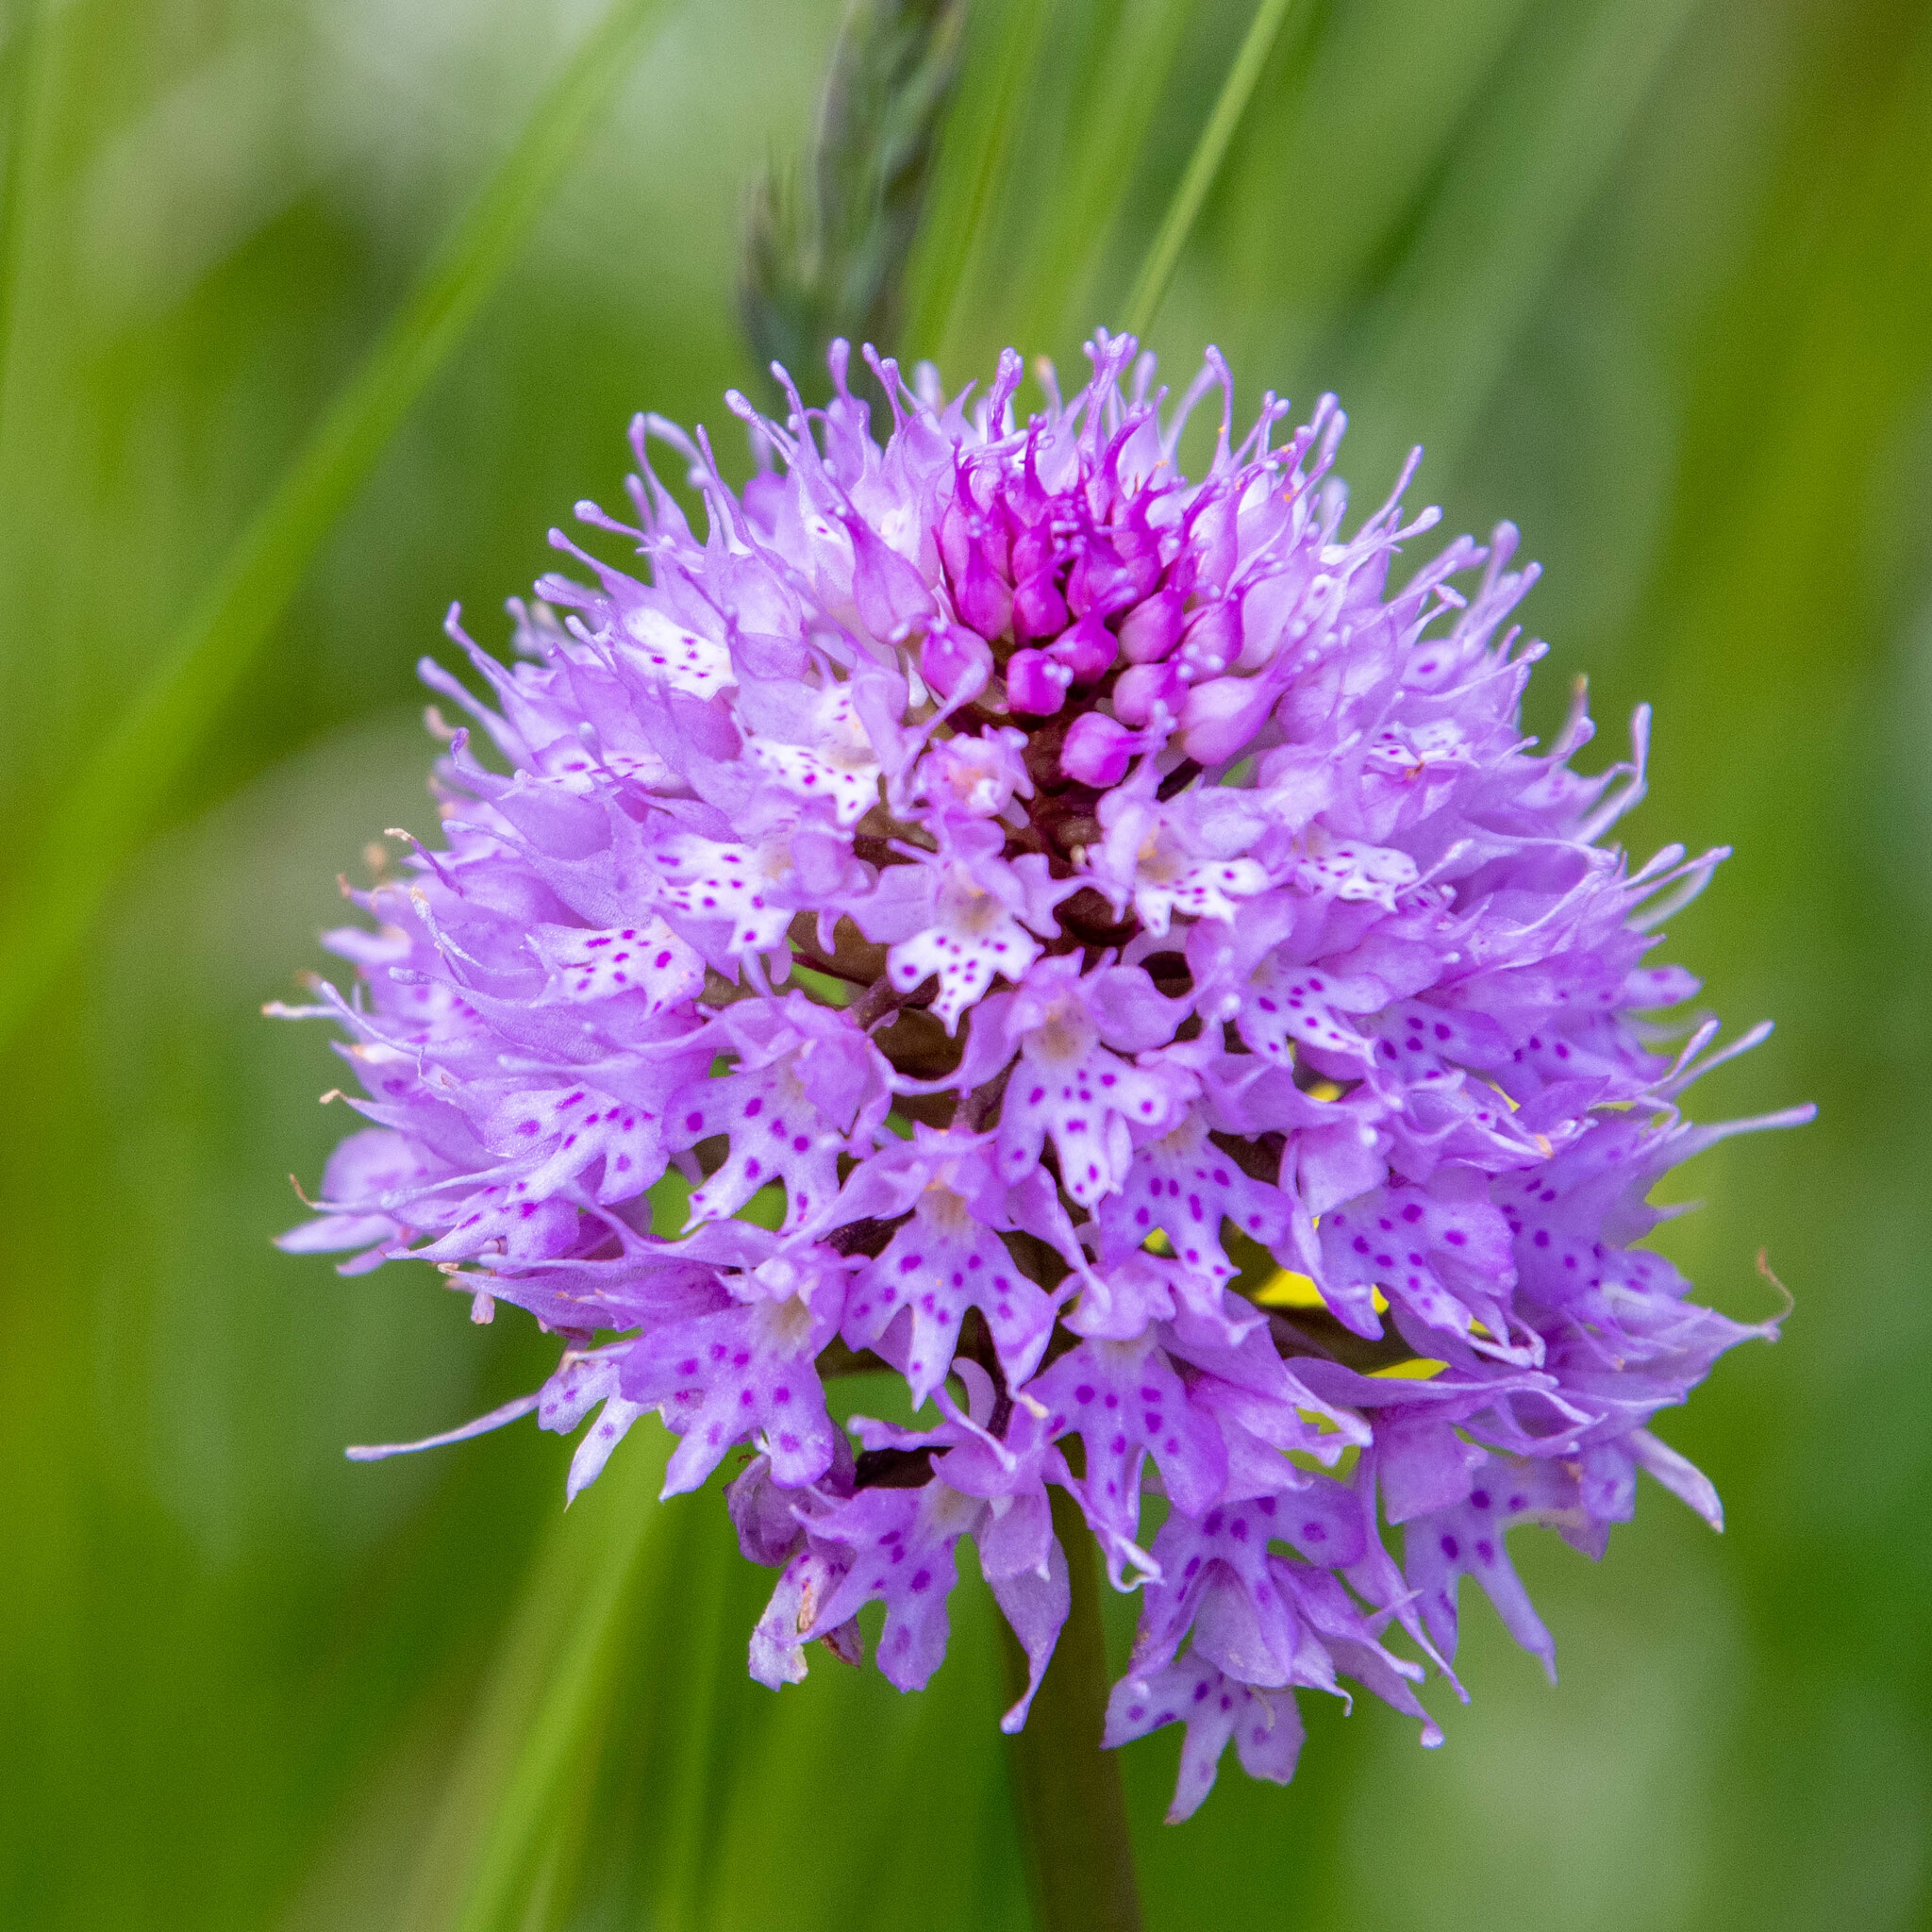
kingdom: Plantae
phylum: Tracheophyta
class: Liliopsida
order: Asparagales
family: Orchidaceae
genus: Traunsteinera
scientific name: Traunsteinera globosa
